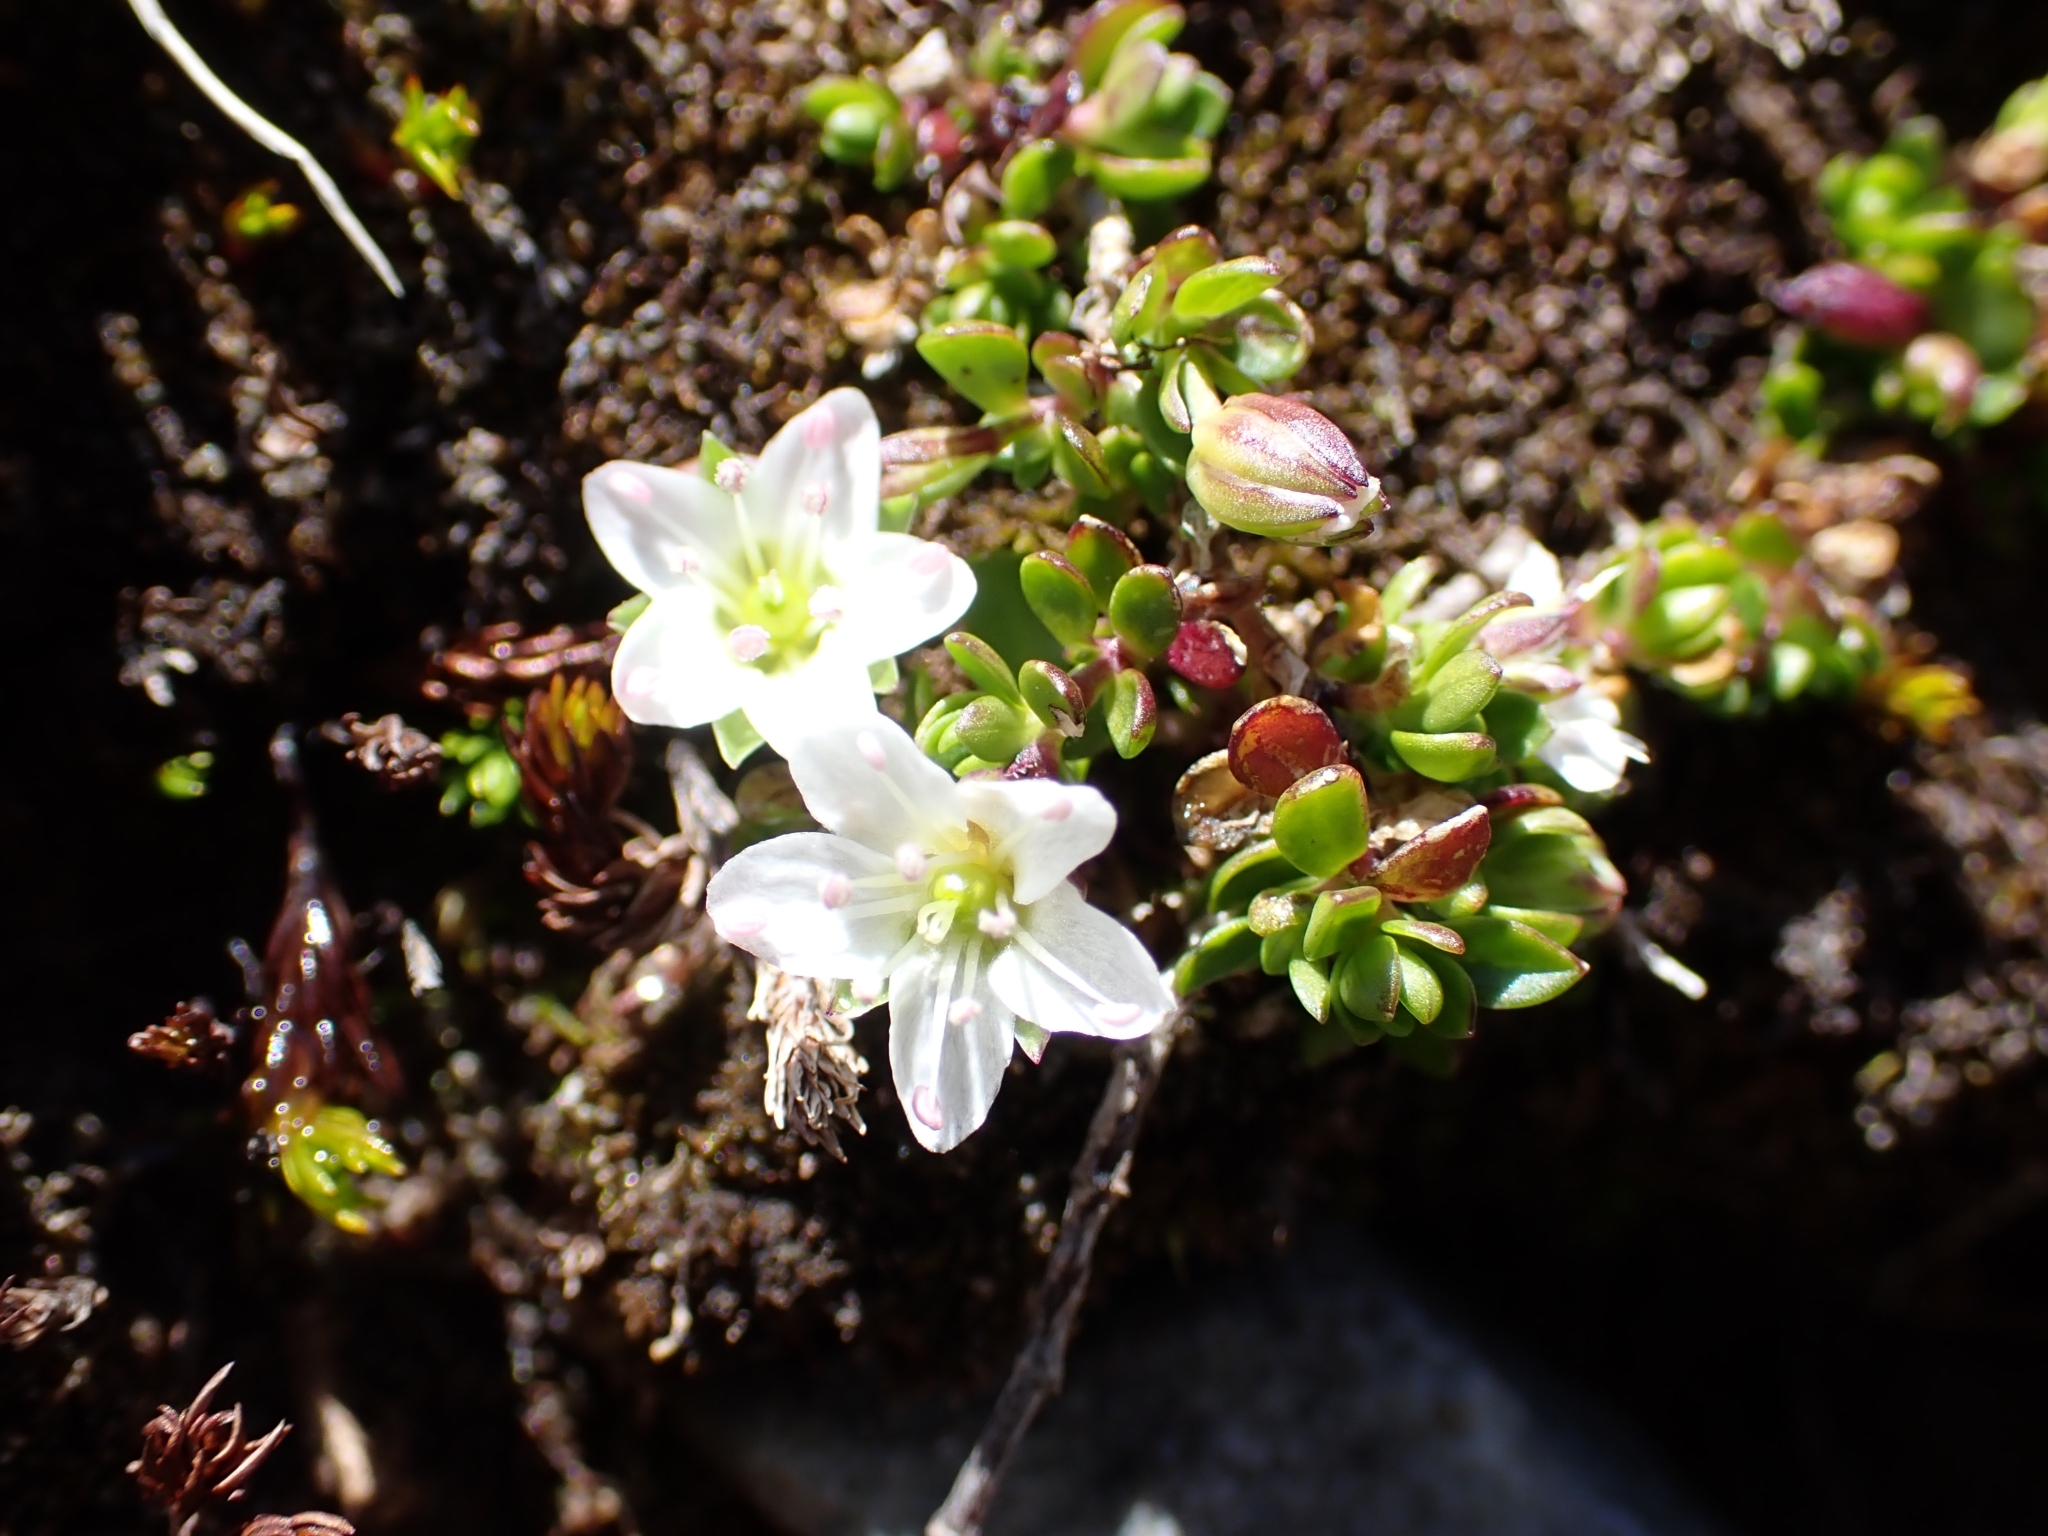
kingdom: Plantae
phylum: Tracheophyta
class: Magnoliopsida
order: Caryophyllales
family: Caryophyllaceae
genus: Arenaria
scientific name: Arenaria biflora
